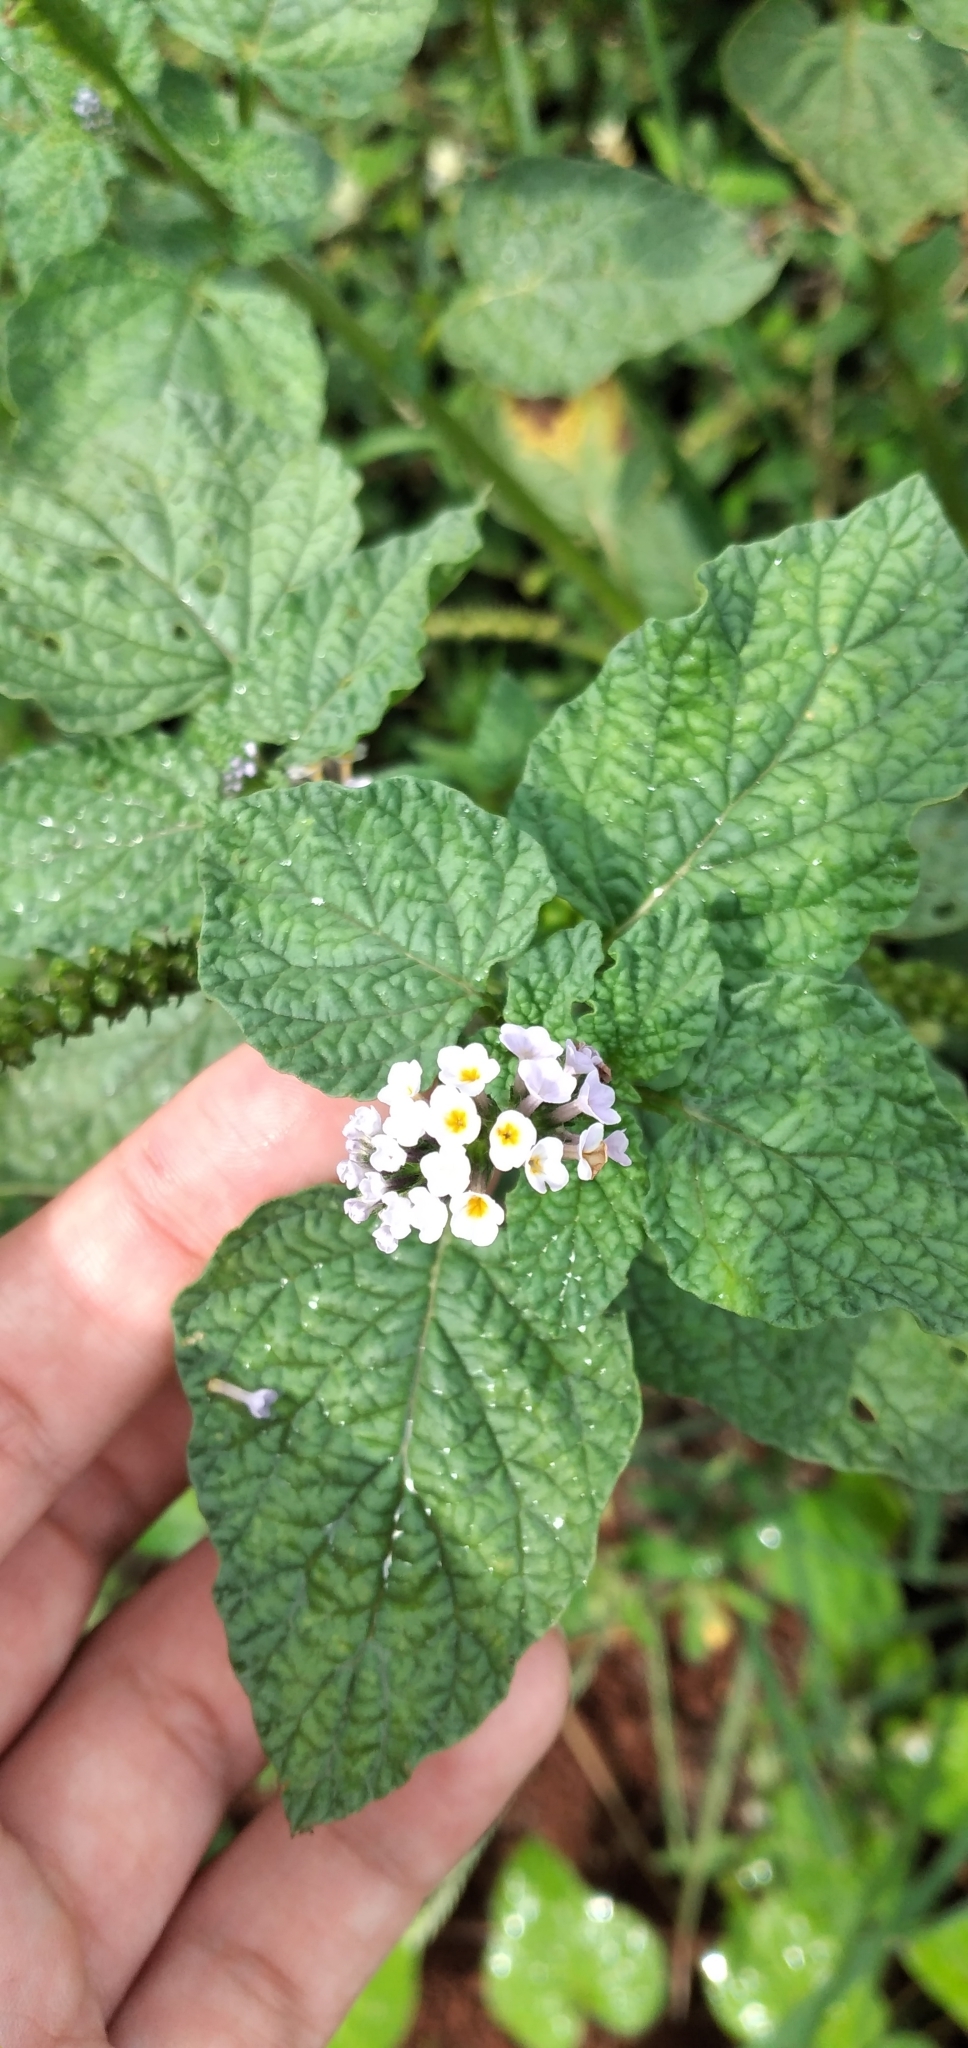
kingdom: Plantae
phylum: Tracheophyta
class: Magnoliopsida
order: Boraginales
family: Heliotropiaceae
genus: Heliotropium
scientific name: Heliotropium indicum
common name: Indian heliotrope
